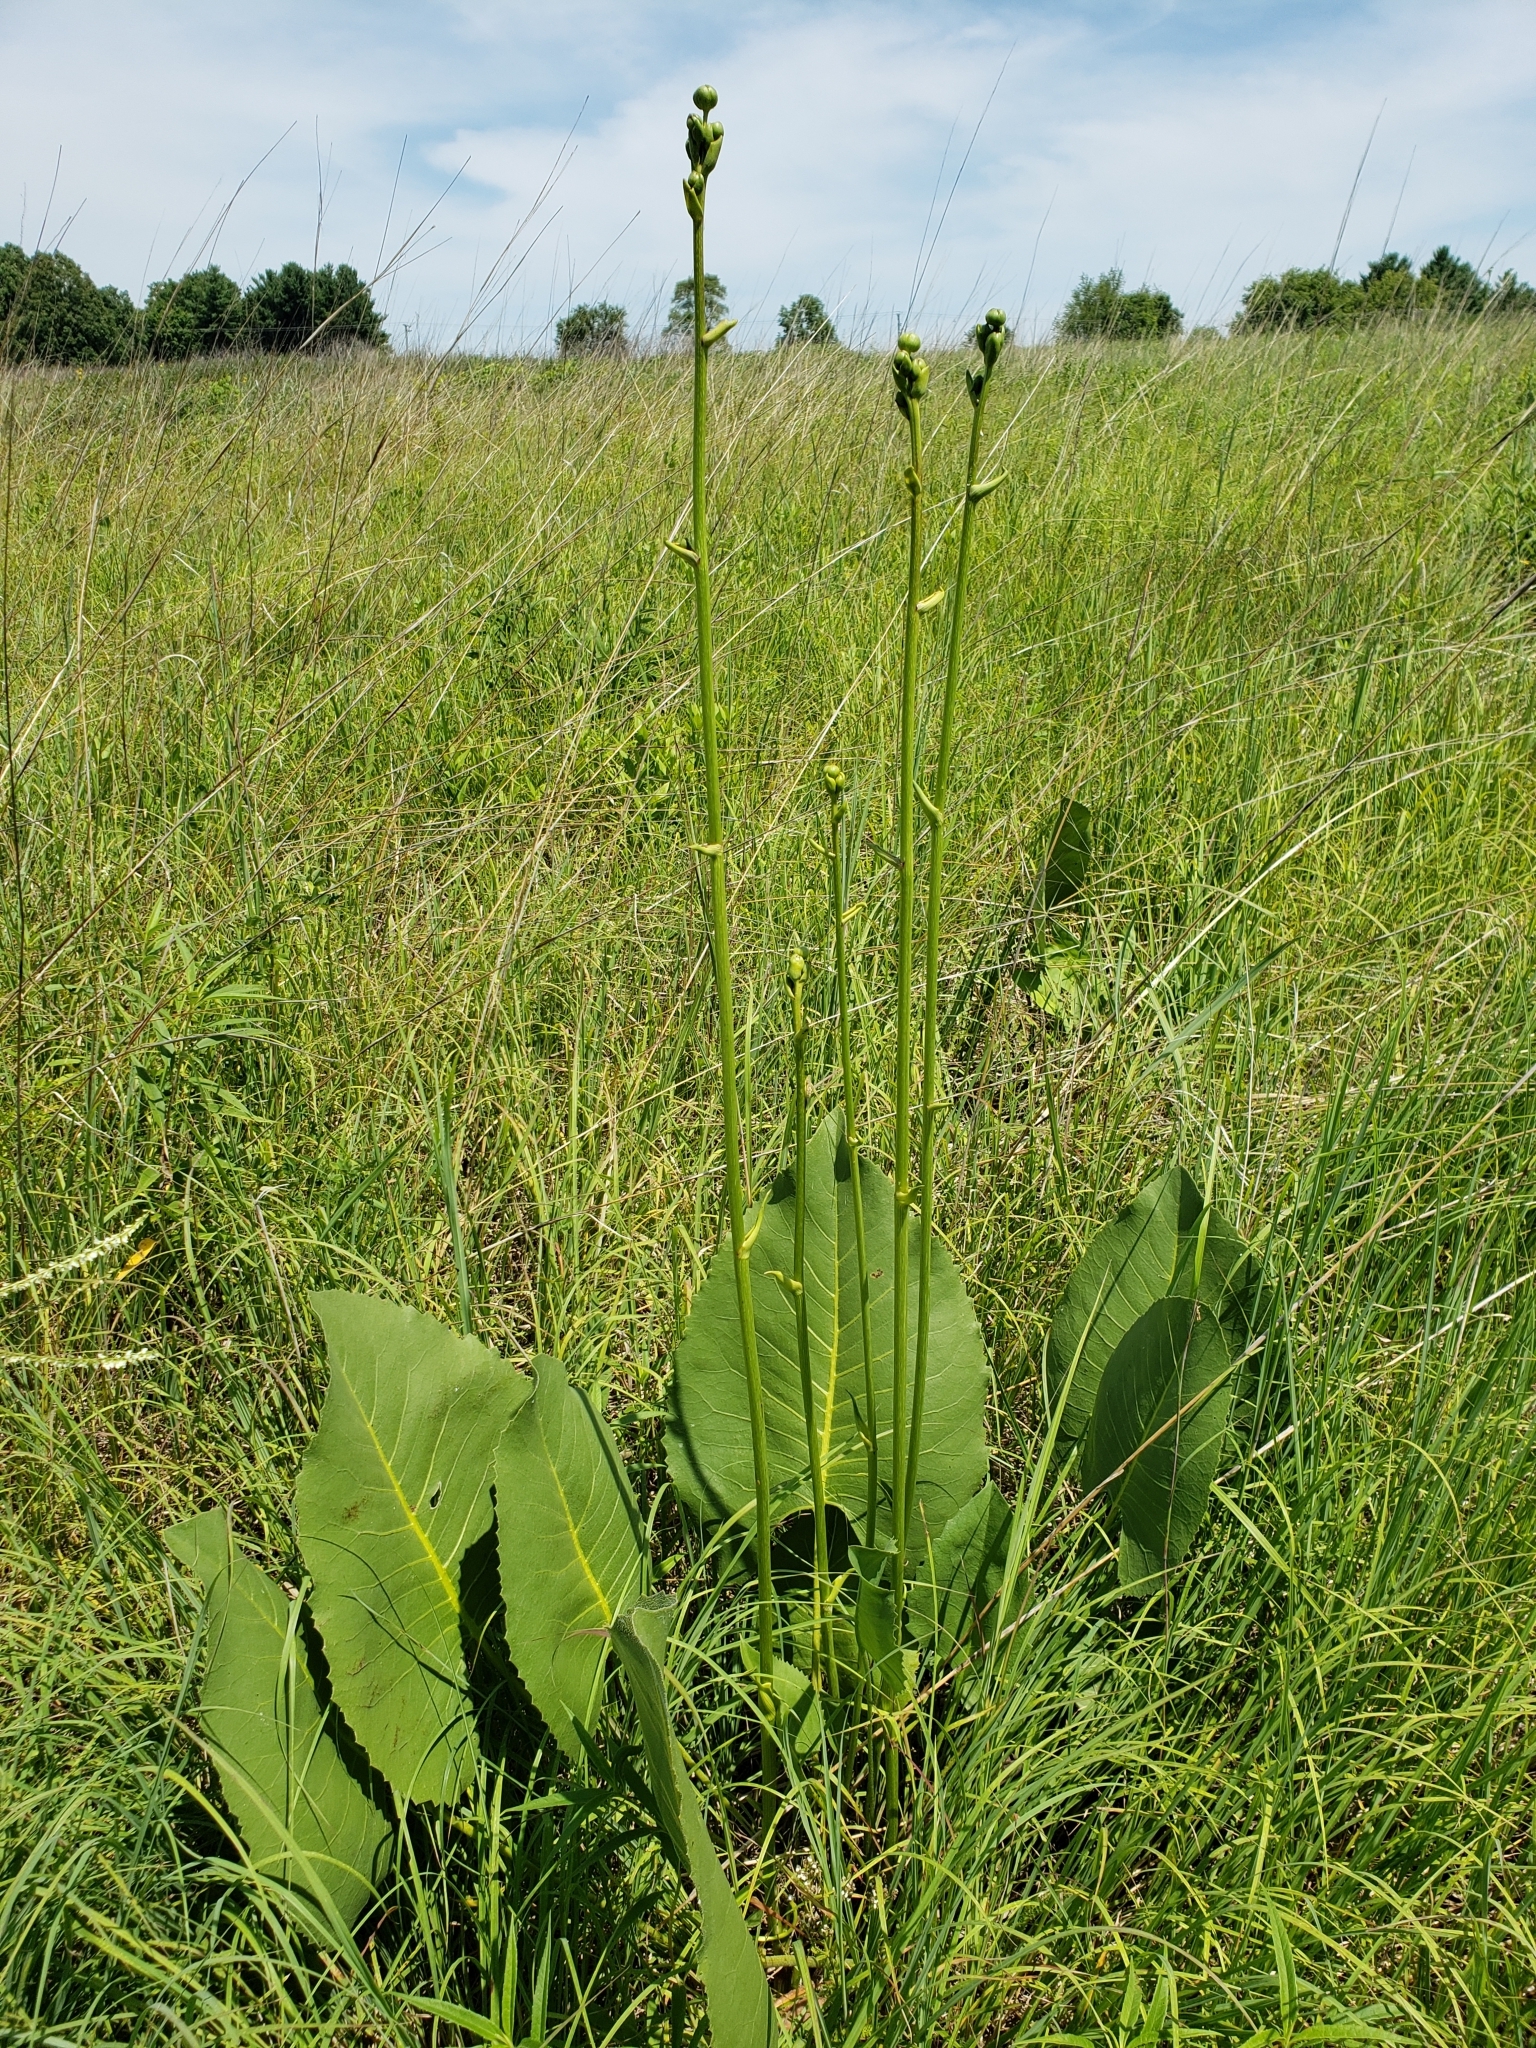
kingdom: Plantae
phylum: Tracheophyta
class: Magnoliopsida
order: Asterales
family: Asteraceae
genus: Silphium
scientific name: Silphium terebinthinaceum
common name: Basal-leaf rosinweed
